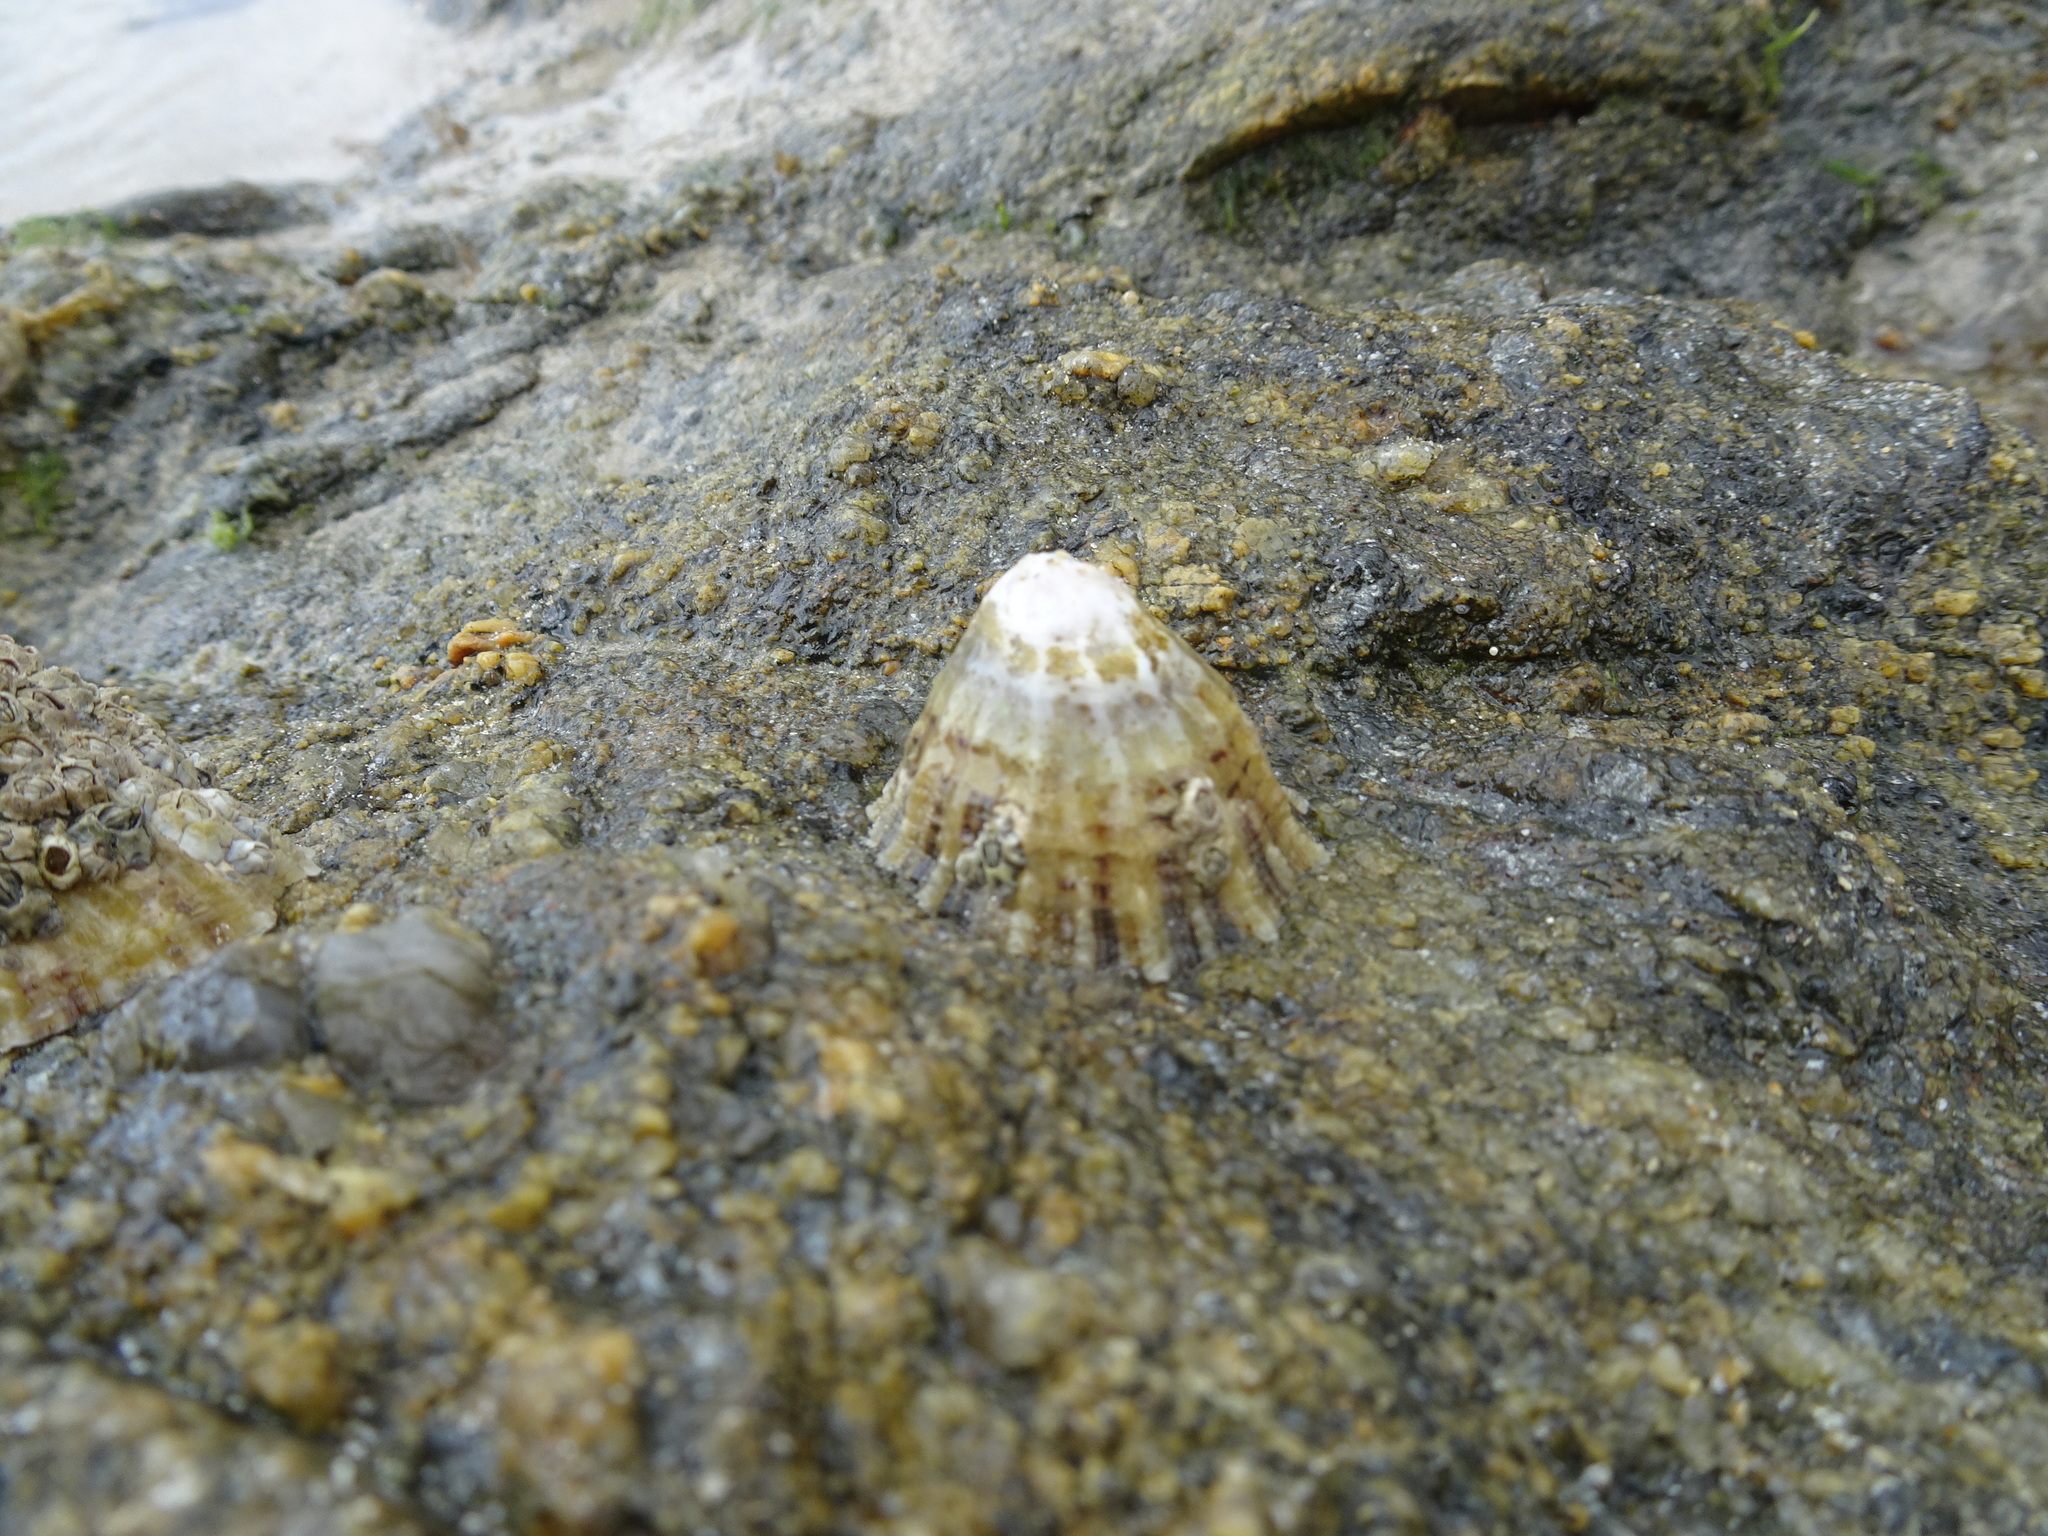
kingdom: Animalia
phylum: Mollusca
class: Gastropoda
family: Patellidae
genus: Patella
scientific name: Patella vulgata
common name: Common limpet
